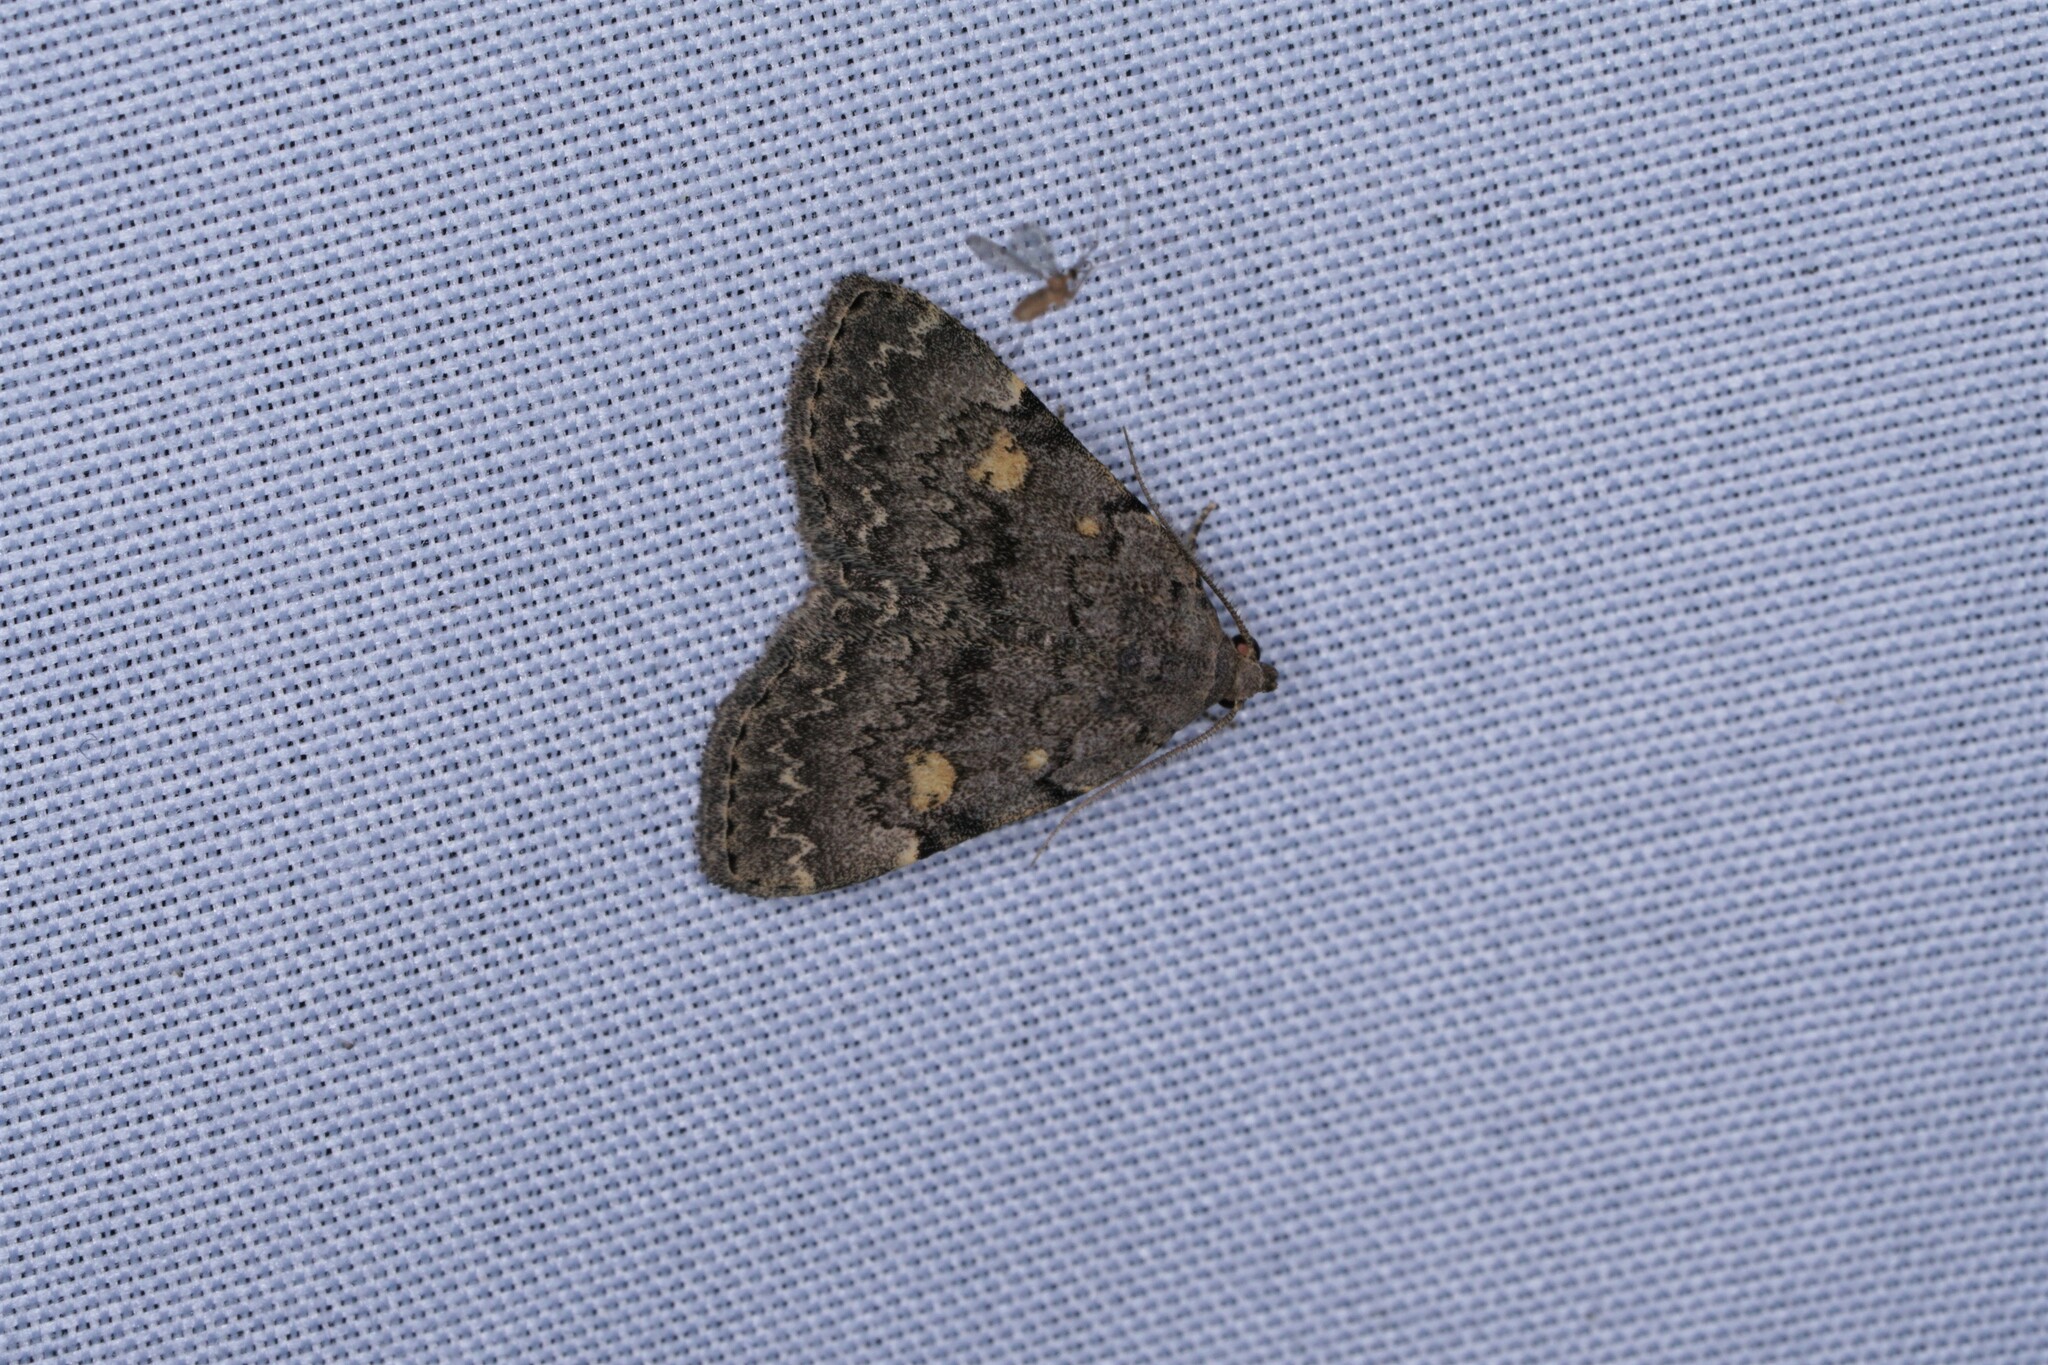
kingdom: Animalia
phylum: Arthropoda
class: Insecta
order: Lepidoptera
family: Erebidae
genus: Idia
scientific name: Idia aemula
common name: Common idia moth
